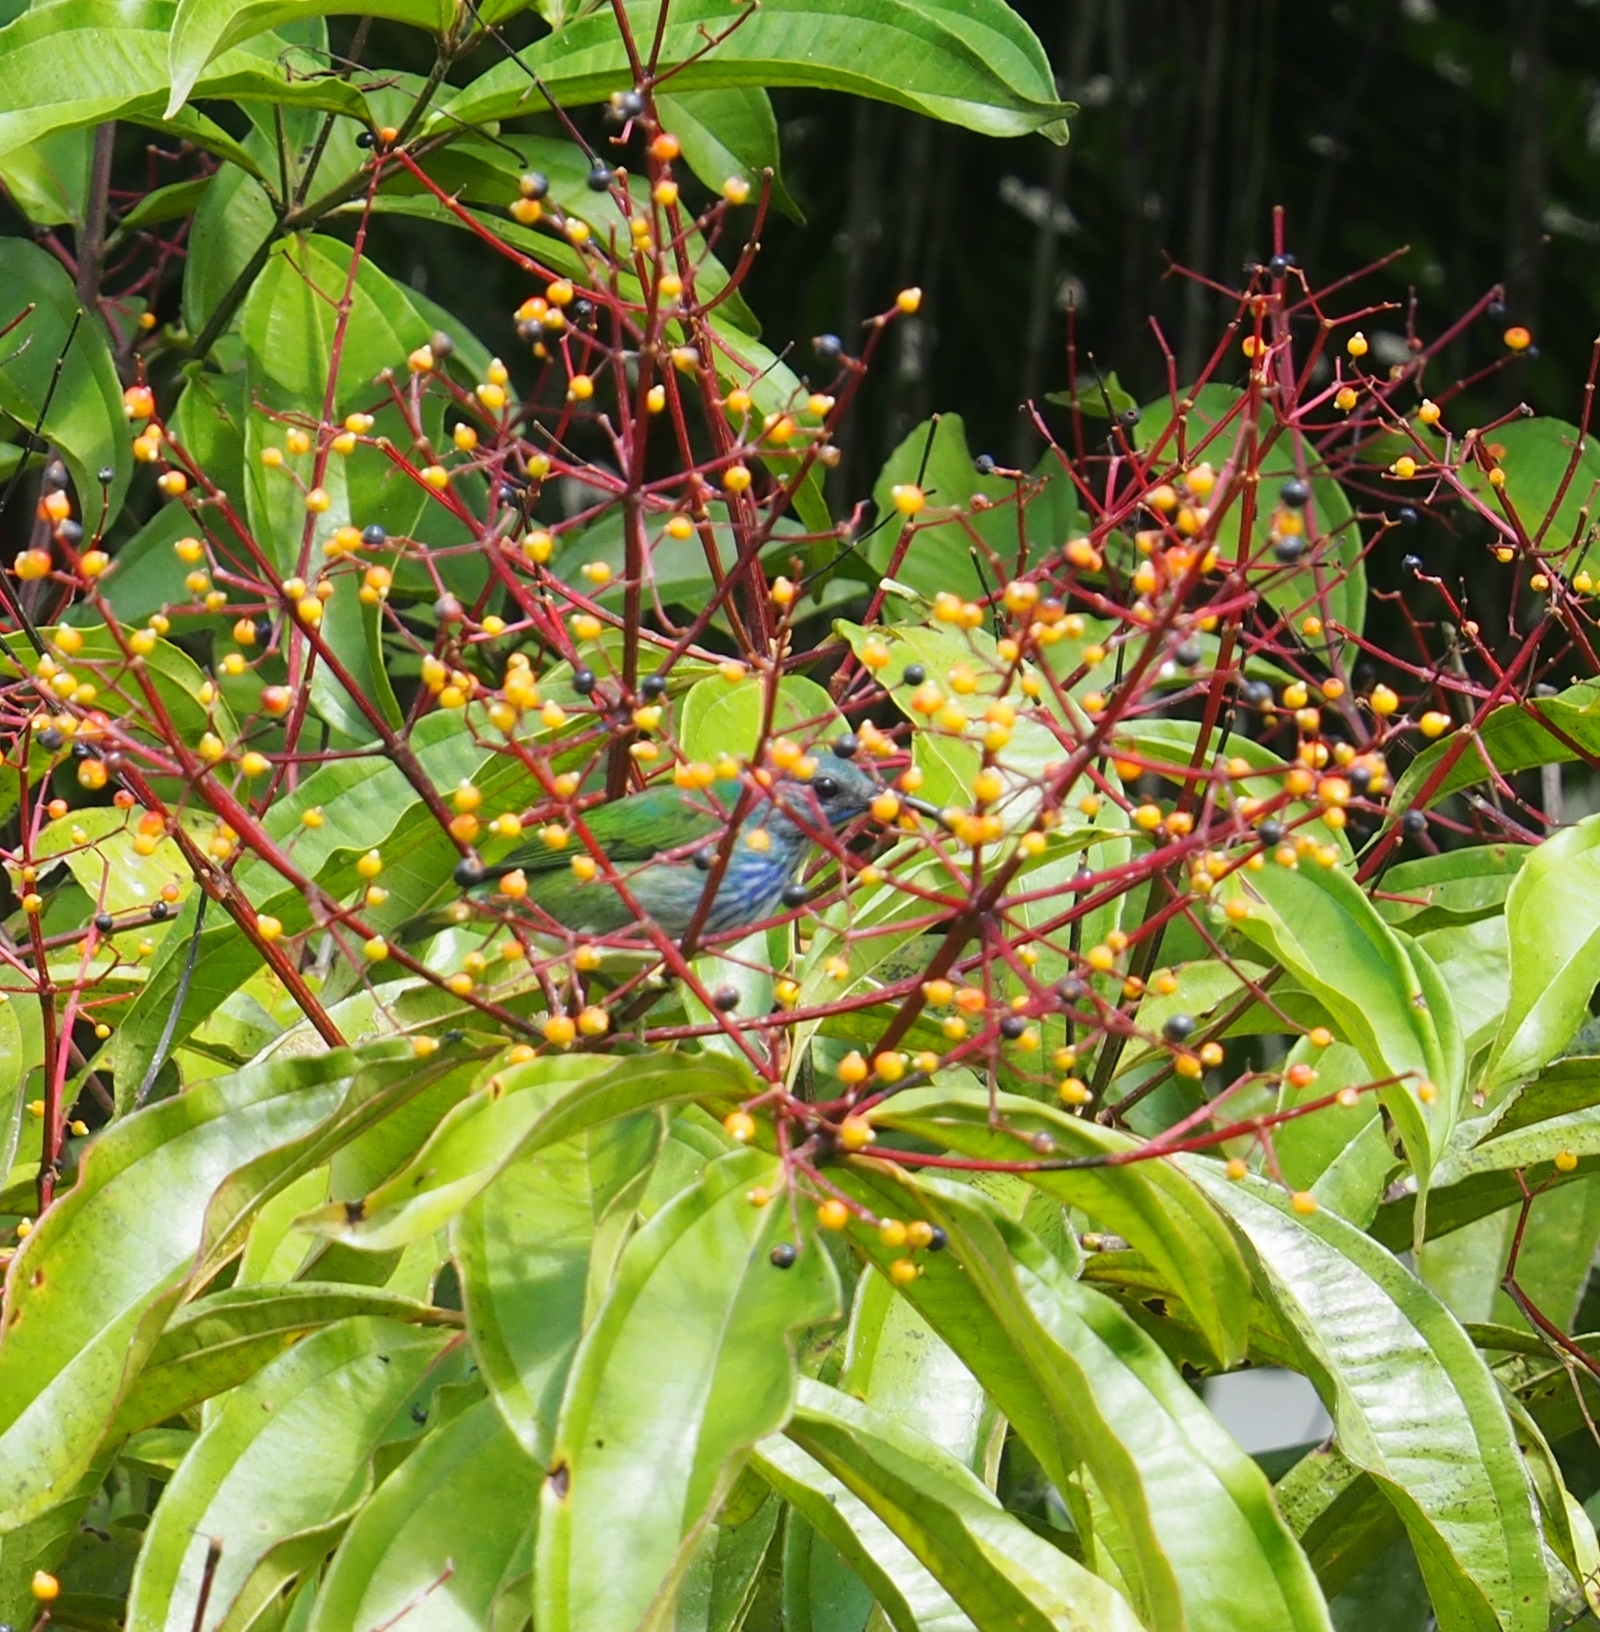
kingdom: Animalia
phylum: Chordata
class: Aves
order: Passeriformes
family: Thraupidae
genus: Cyanerpes
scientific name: Cyanerpes lucidus
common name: Shining honeycreeper
